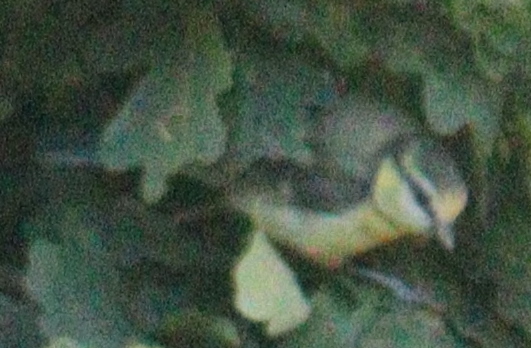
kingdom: Animalia
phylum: Chordata
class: Aves
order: Passeriformes
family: Paridae
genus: Cyanistes
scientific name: Cyanistes caeruleus
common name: Eurasian blue tit
